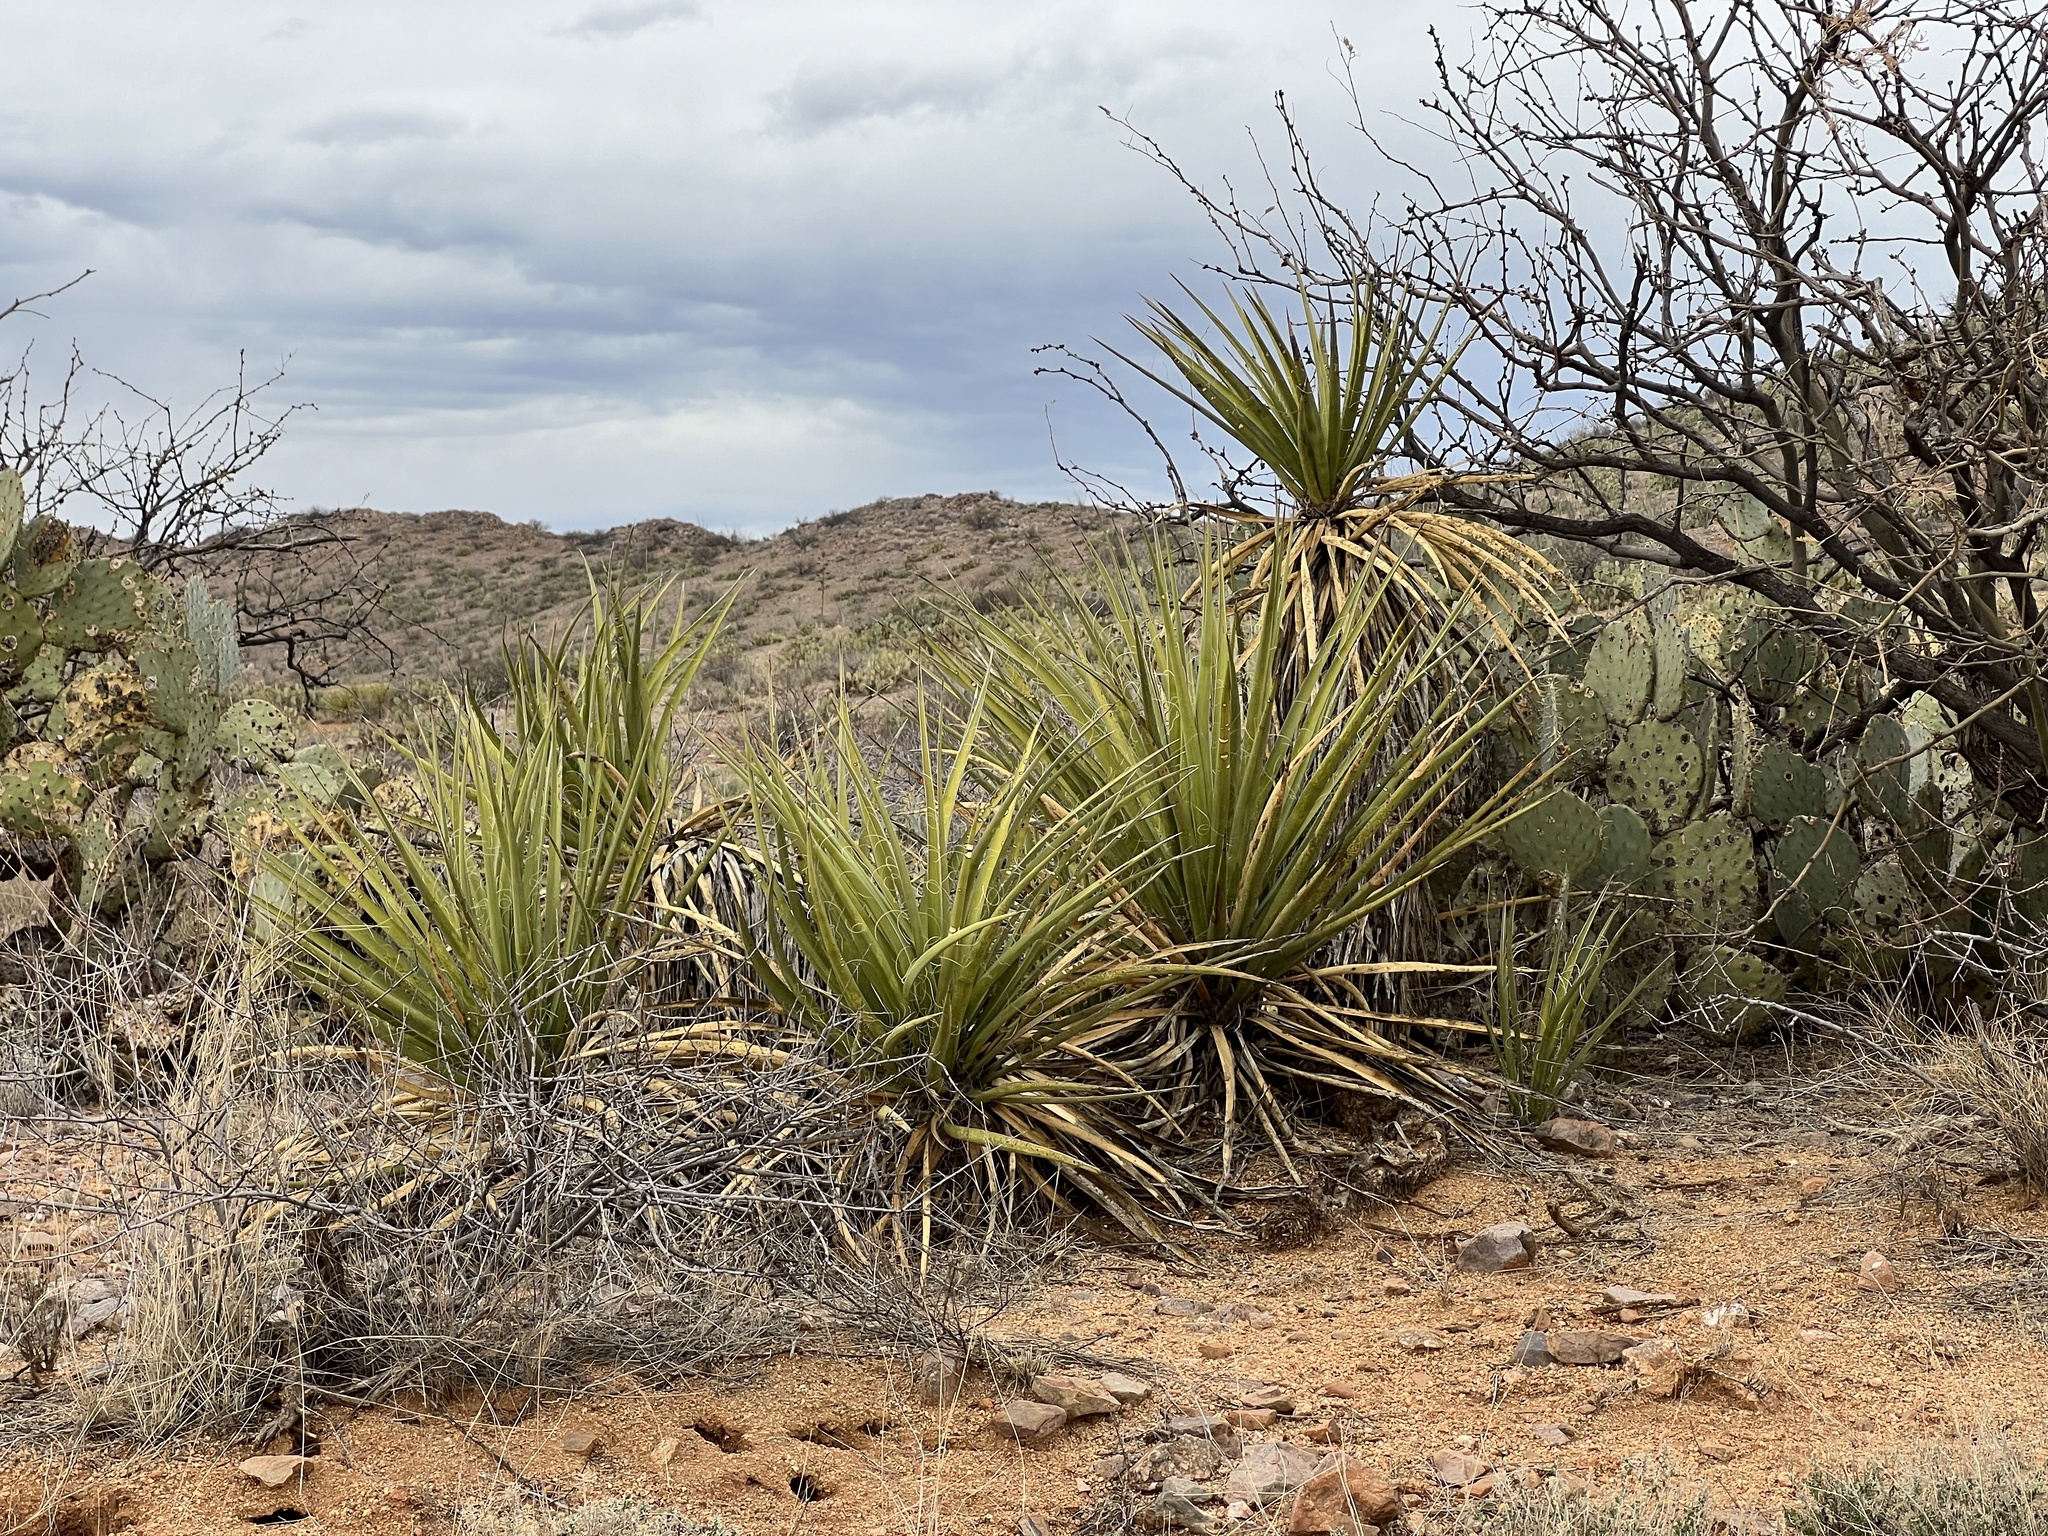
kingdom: Plantae
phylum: Tracheophyta
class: Liliopsida
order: Asparagales
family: Asparagaceae
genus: Yucca
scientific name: Yucca baccata
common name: Banana yucca
